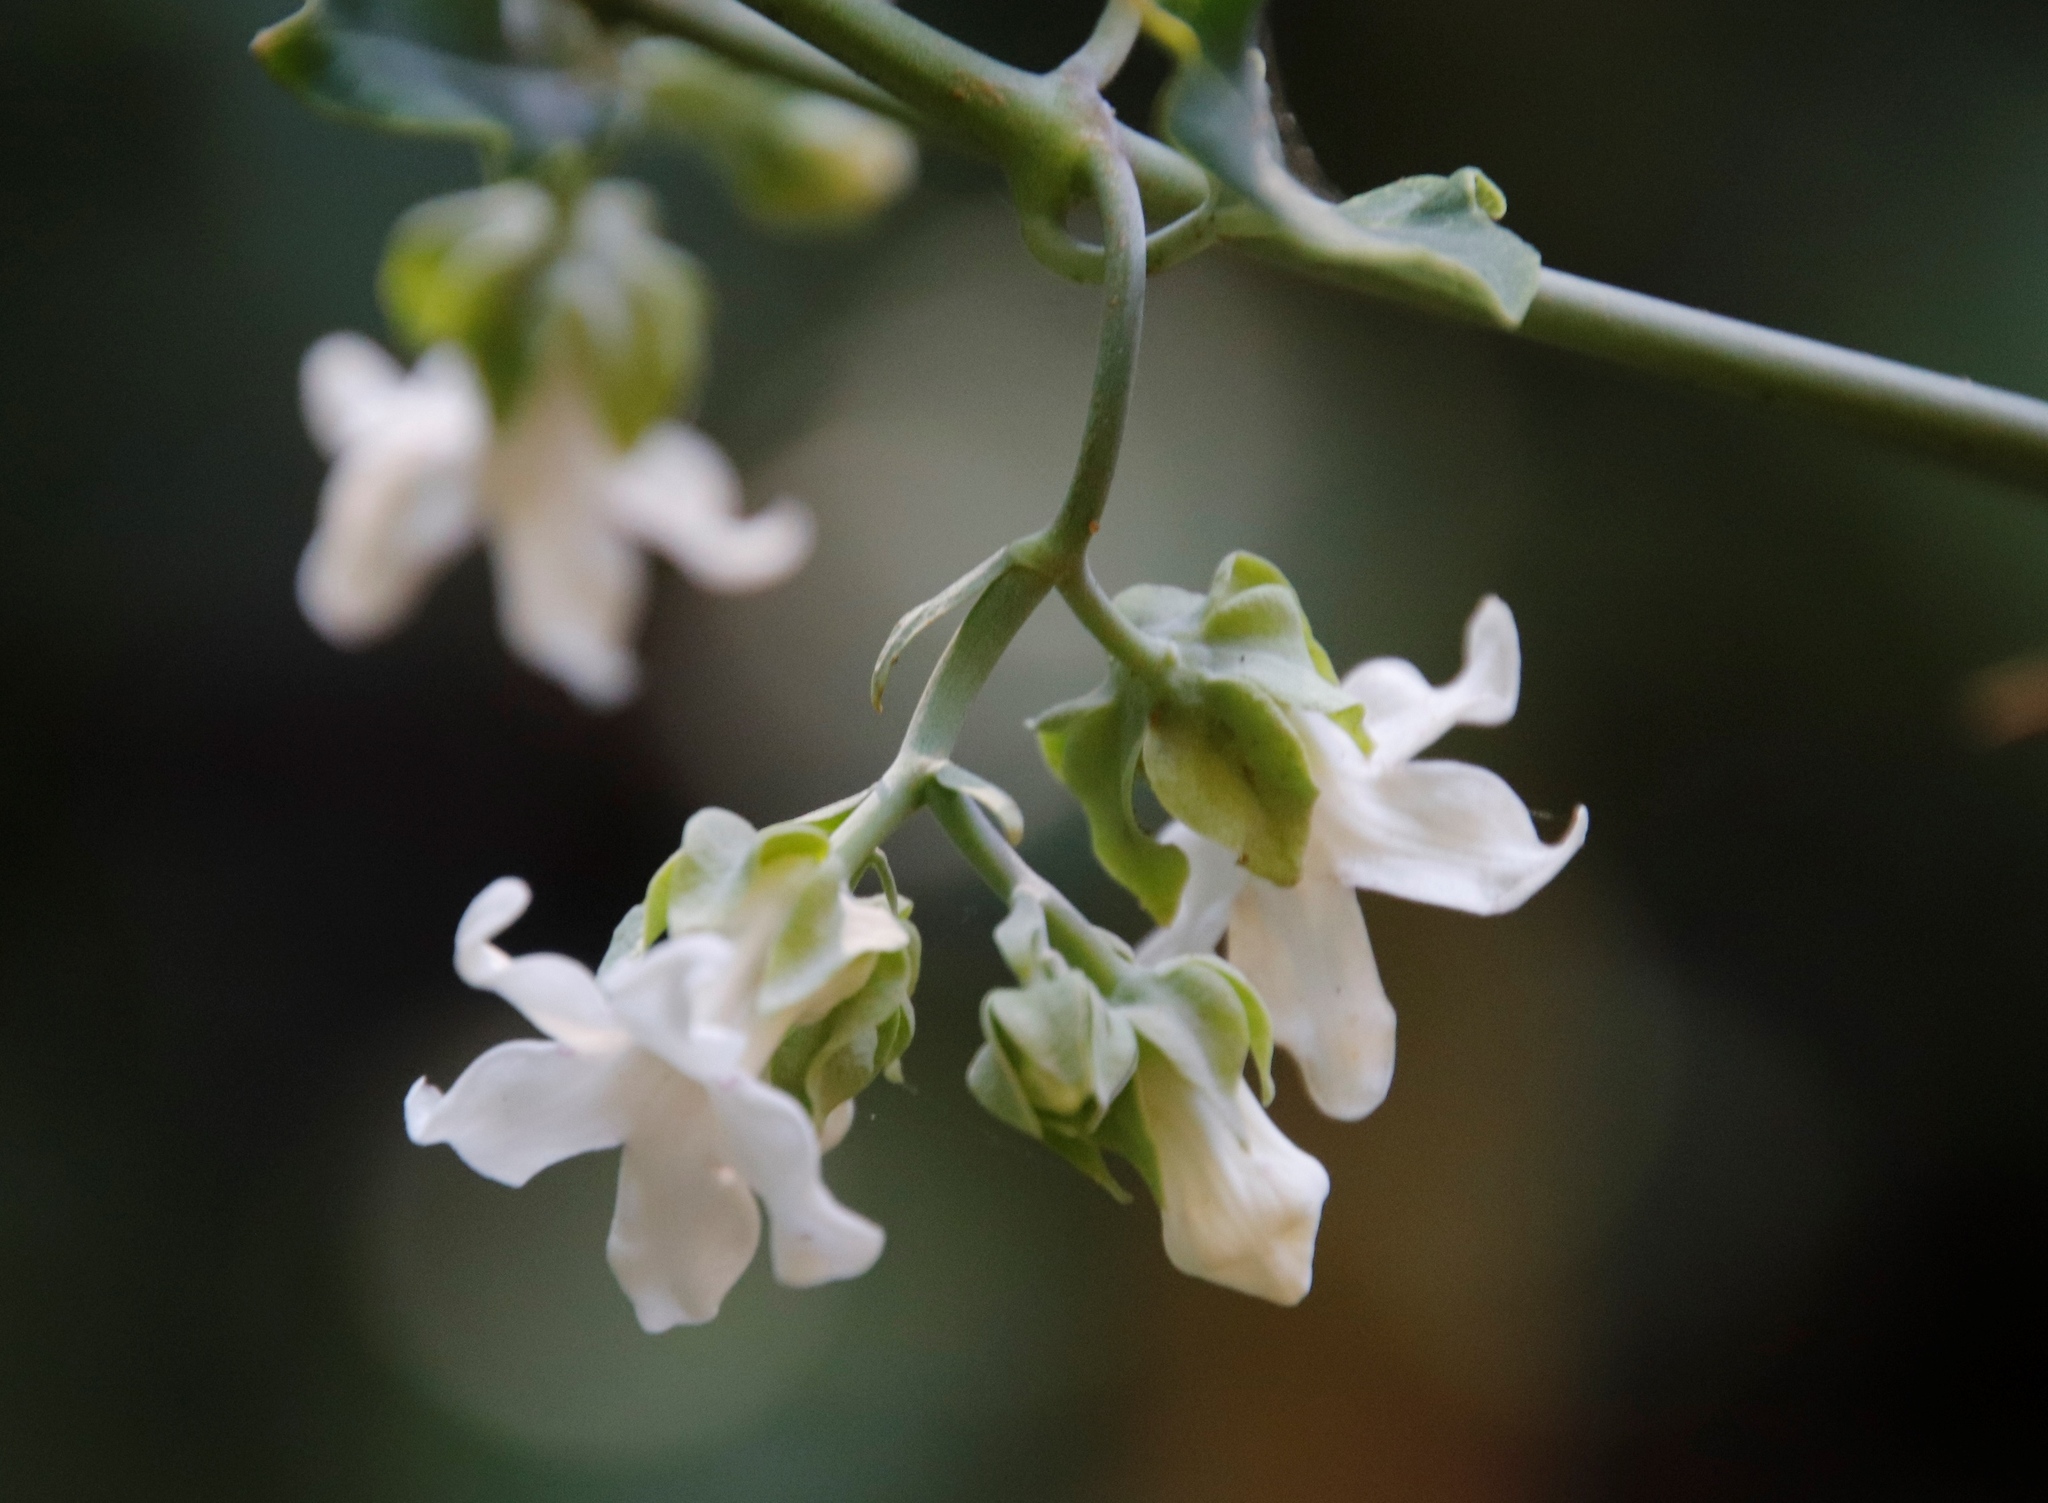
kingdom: Plantae
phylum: Tracheophyta
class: Magnoliopsida
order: Gentianales
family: Apocynaceae
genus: Araujia
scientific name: Araujia sericifera
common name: White bladderflower
